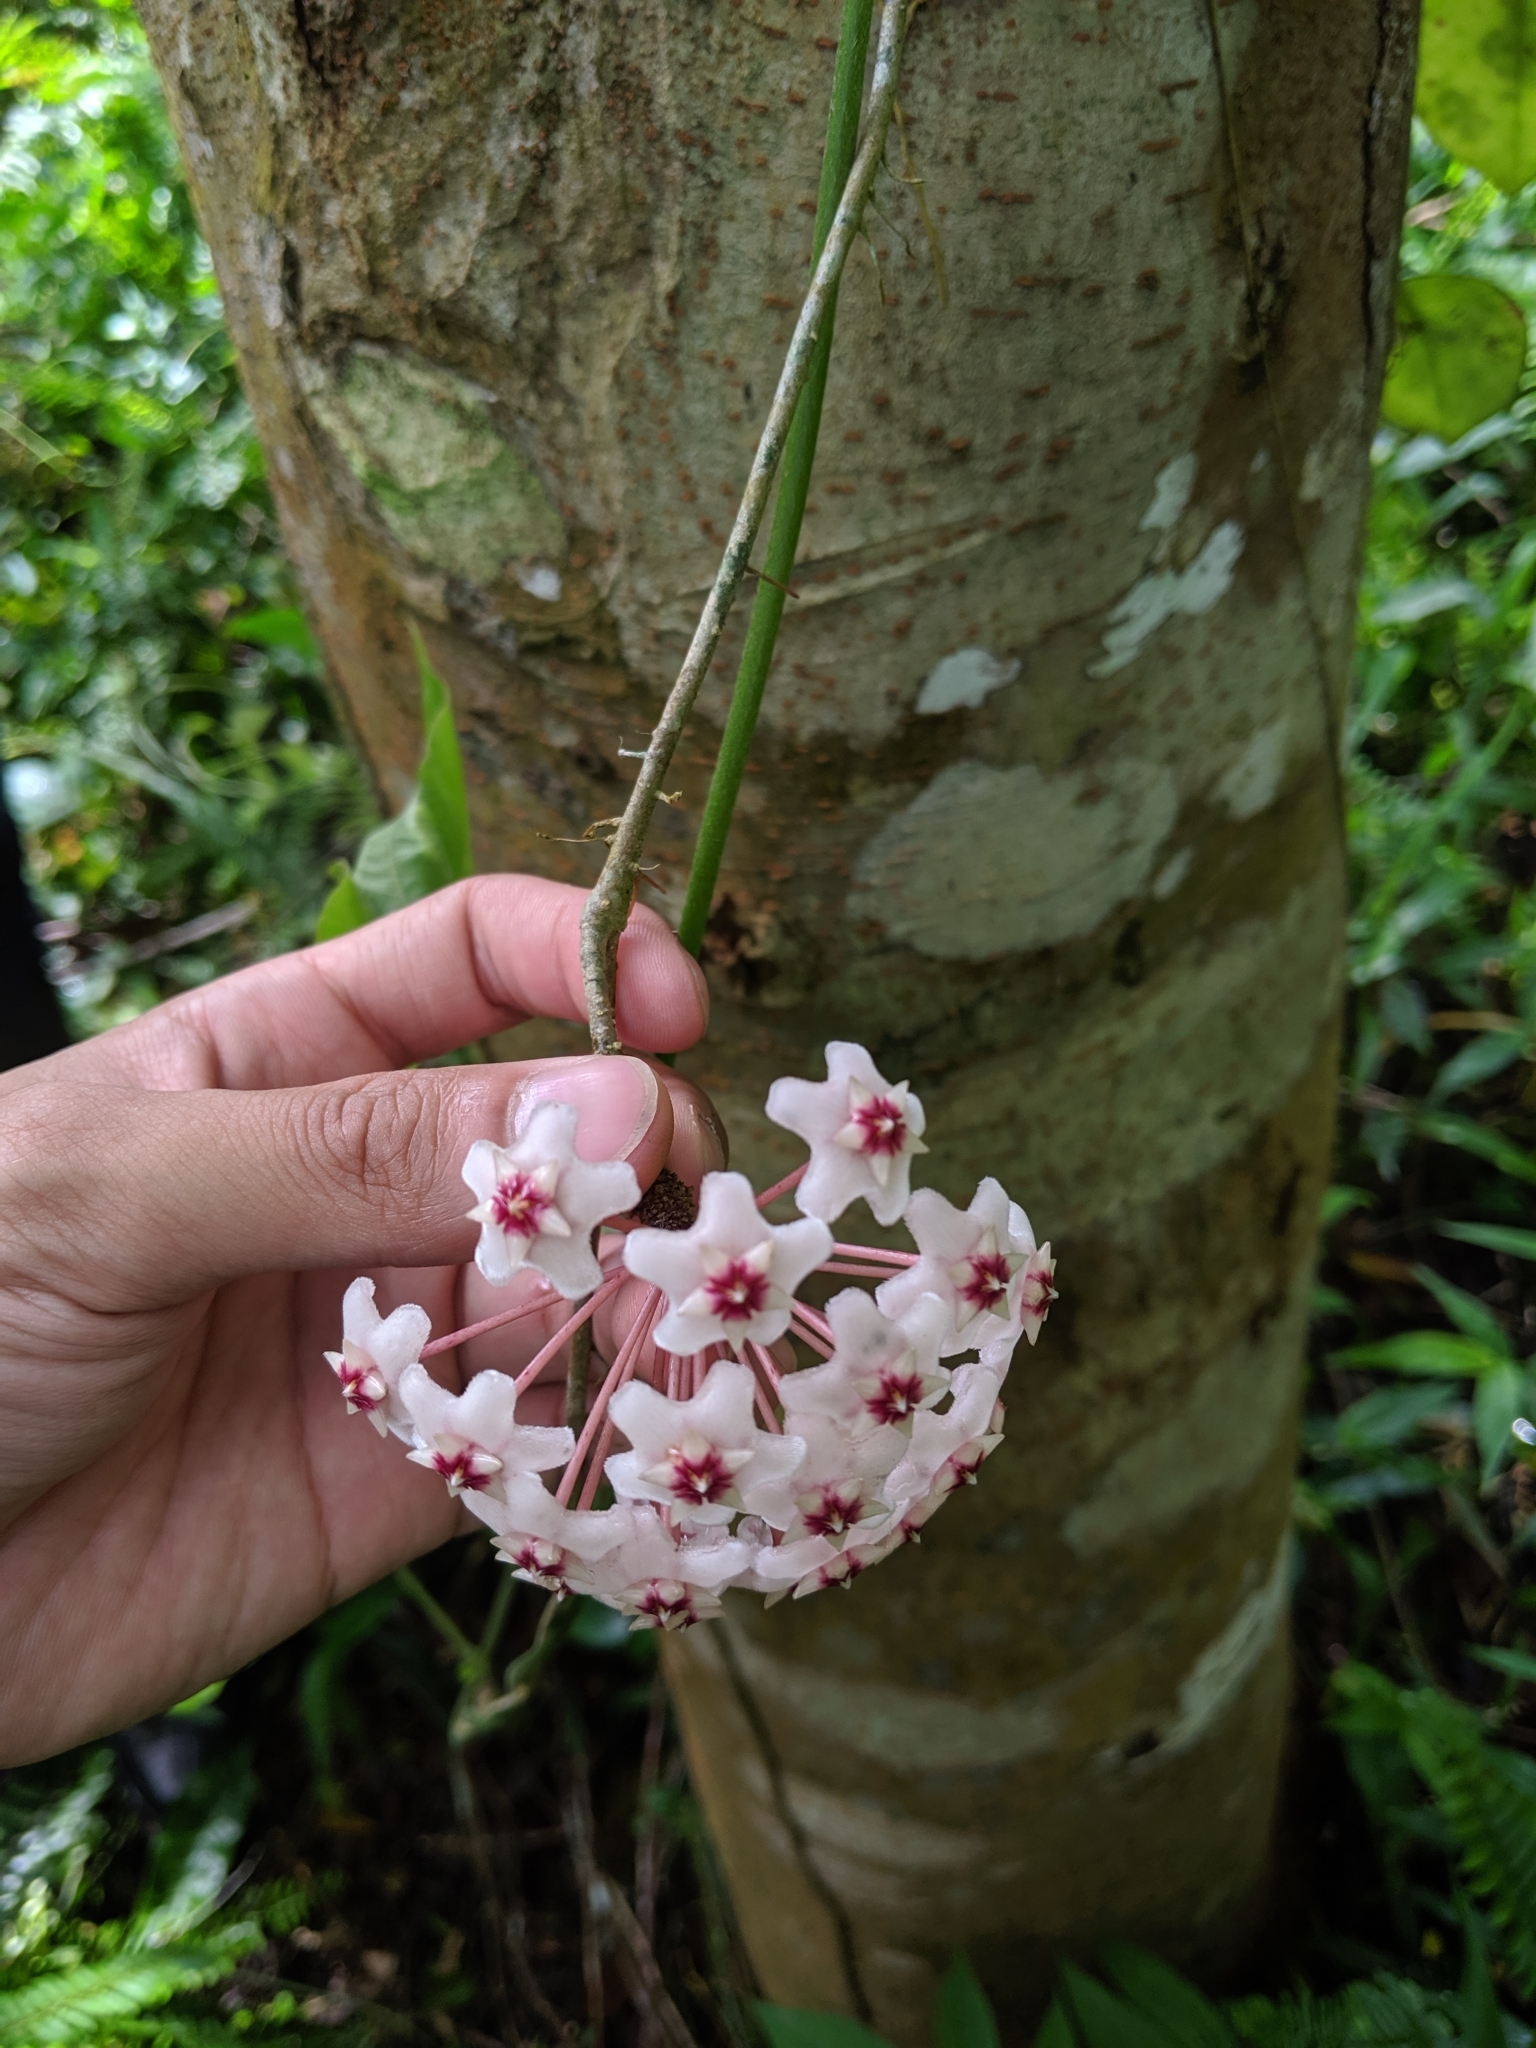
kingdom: Plantae
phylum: Tracheophyta
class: Magnoliopsida
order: Gentianales
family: Apocynaceae
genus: Hoya
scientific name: Hoya carnosa
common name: Honeyplant
